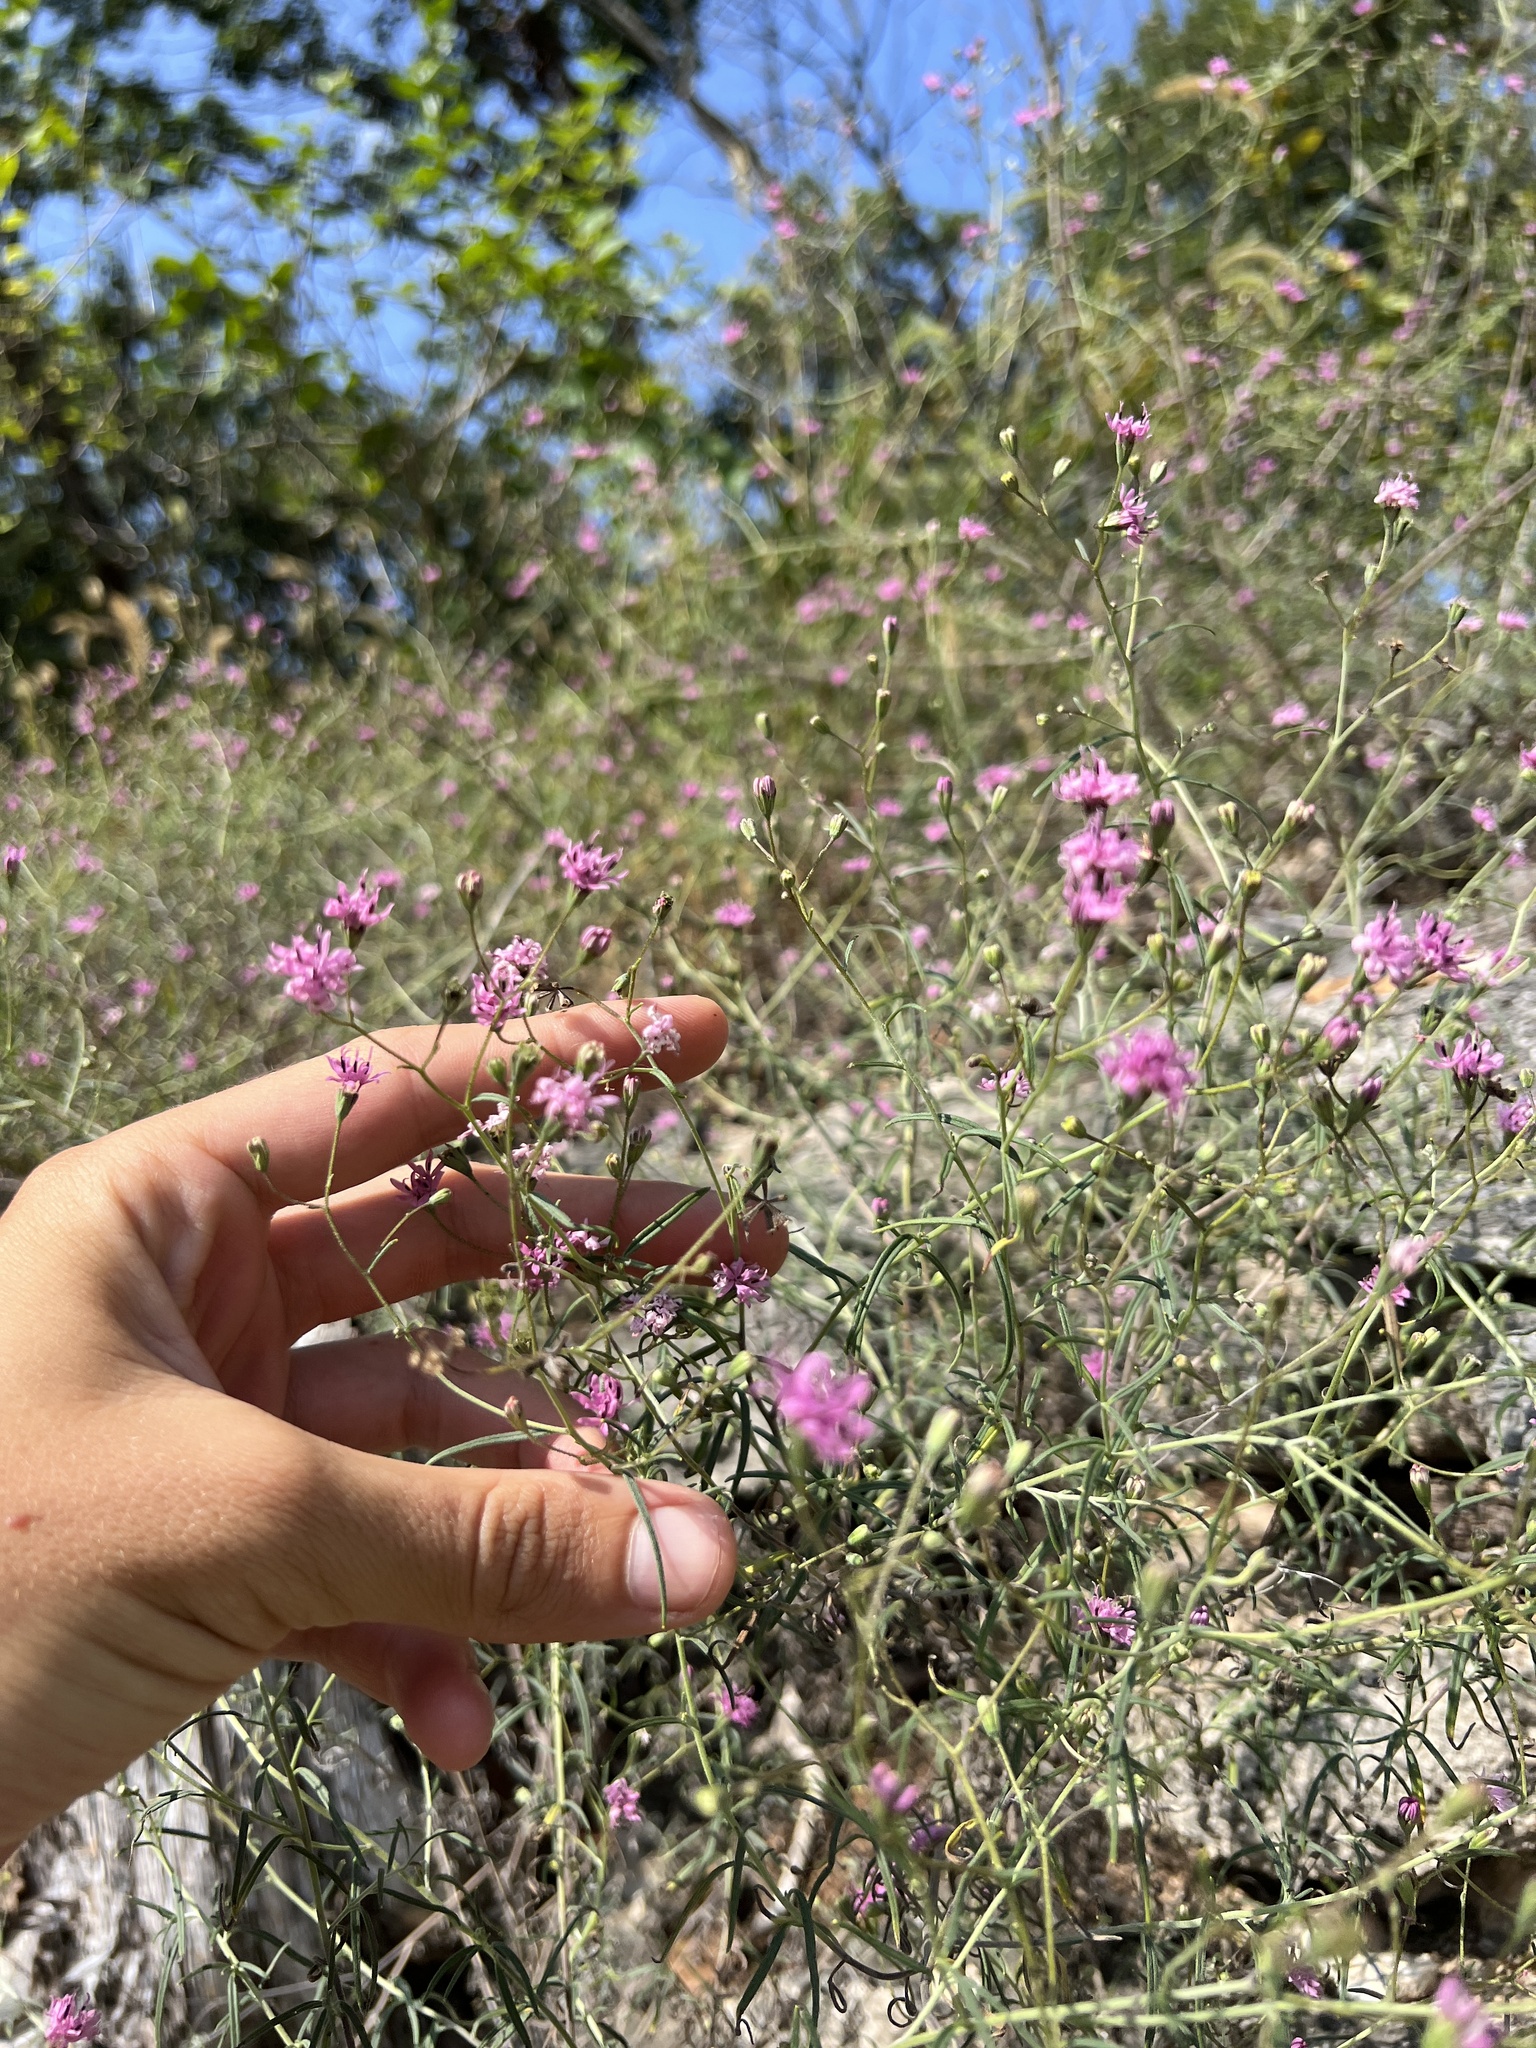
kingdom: Plantae
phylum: Tracheophyta
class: Magnoliopsida
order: Asterales
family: Asteraceae
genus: Palafoxia
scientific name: Palafoxia callosa
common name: Small palafox
